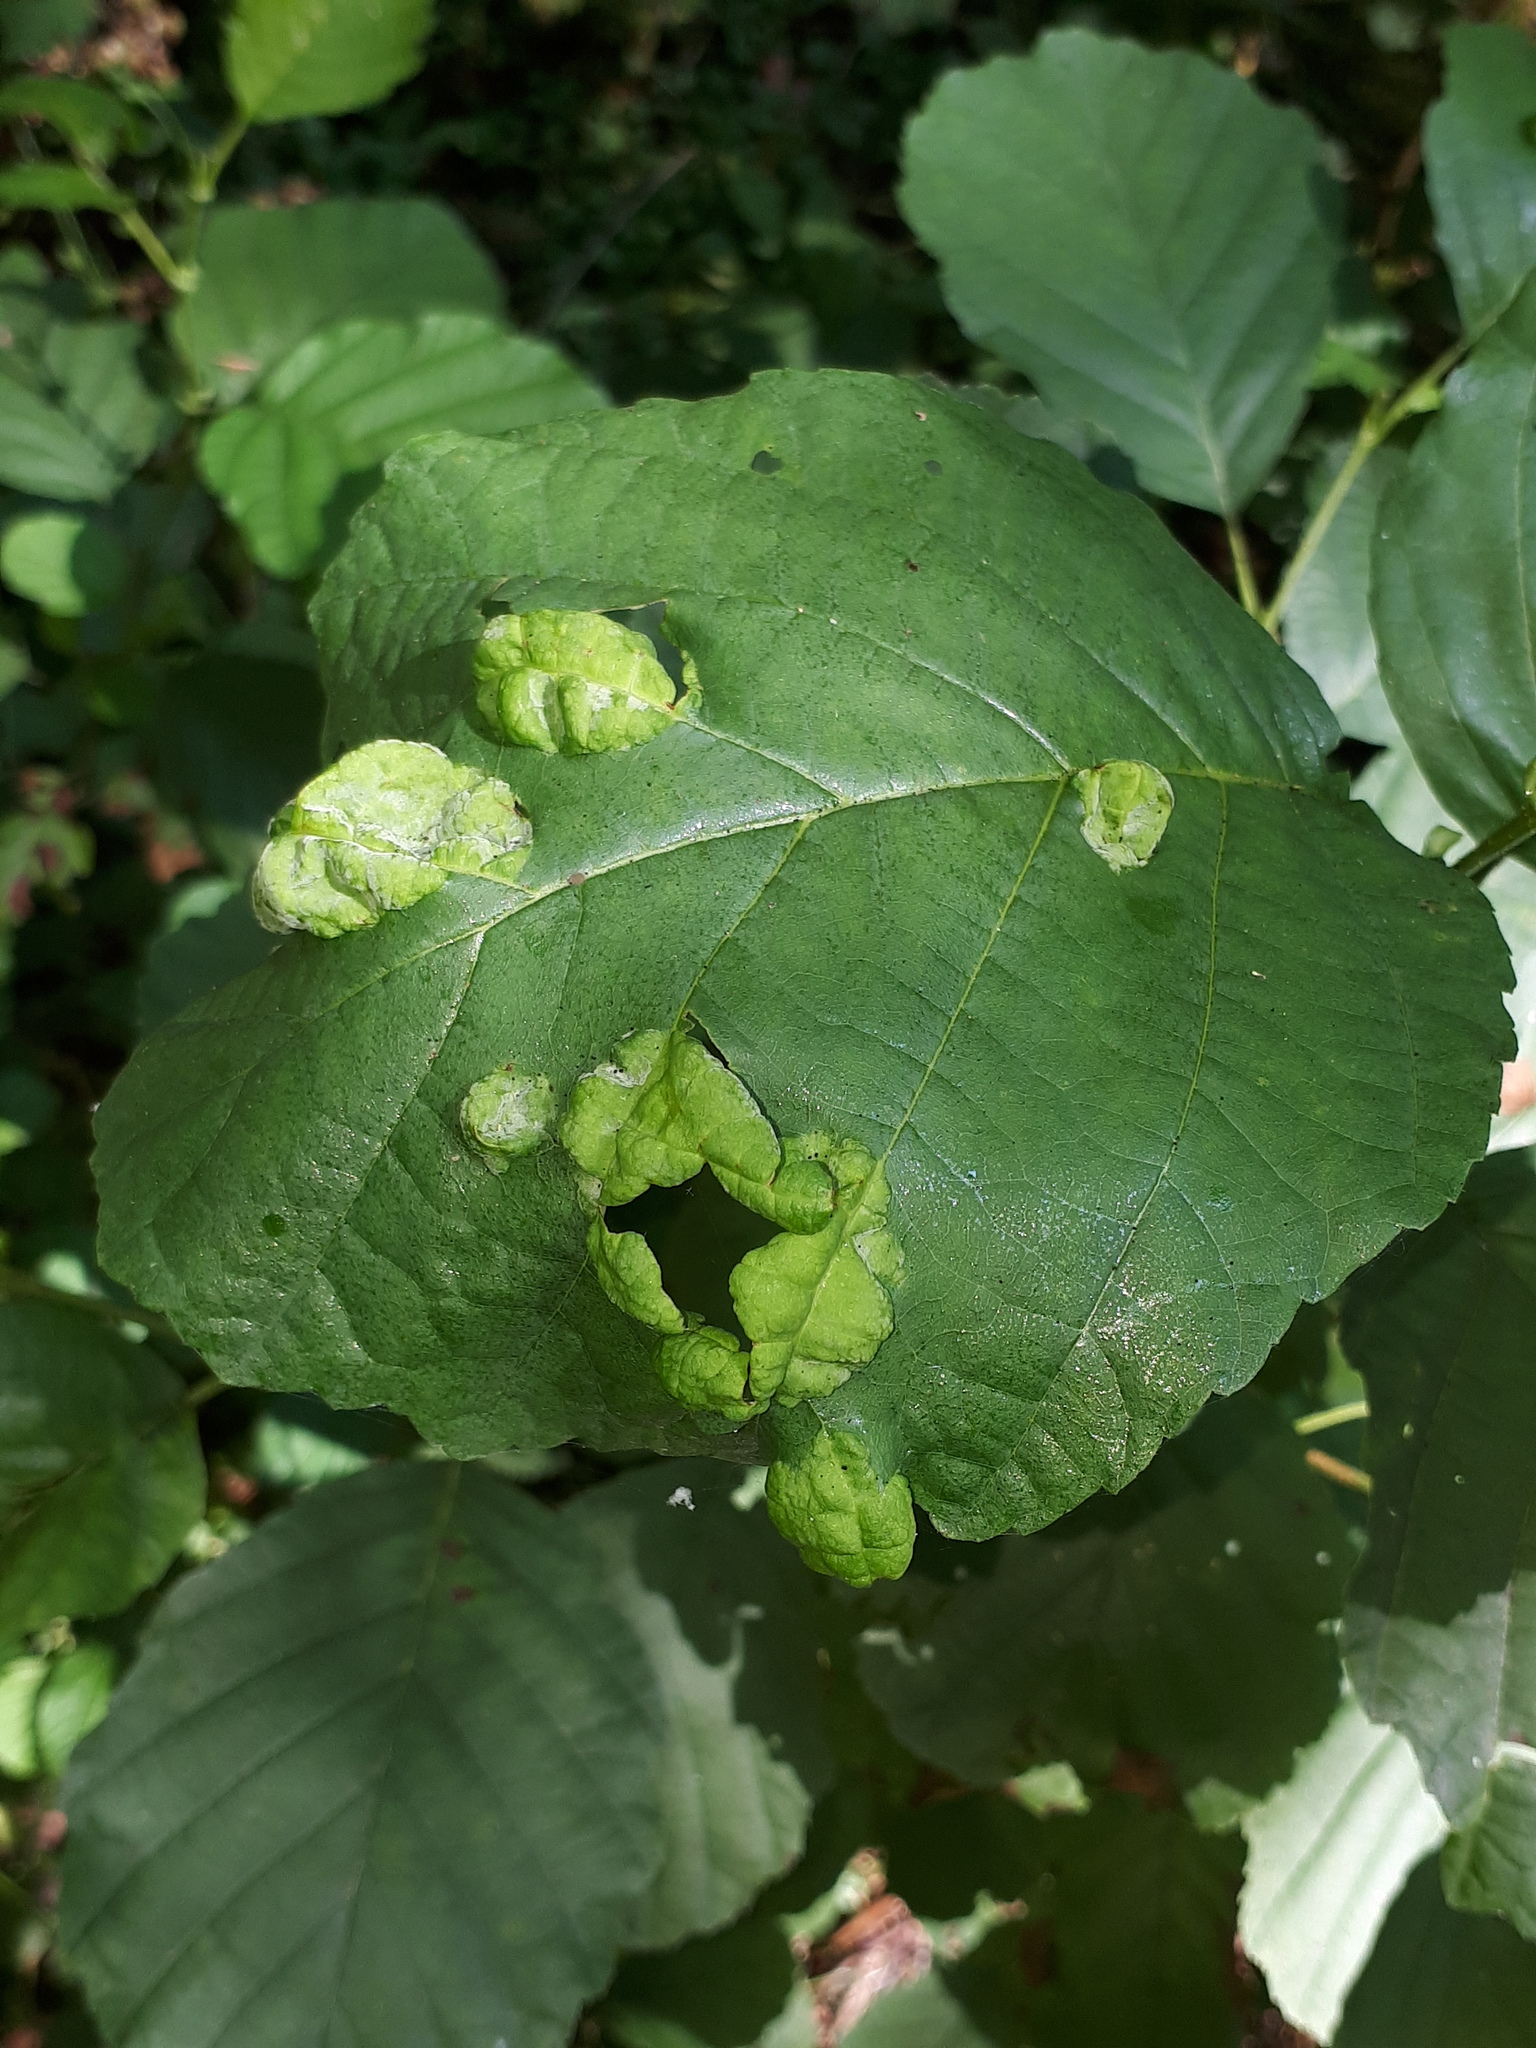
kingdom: Fungi
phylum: Ascomycota
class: Taphrinomycetes
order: Taphrinales
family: Taphrinaceae
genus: Taphrina
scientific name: Taphrina tosquinetii
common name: Alder wrinkle
